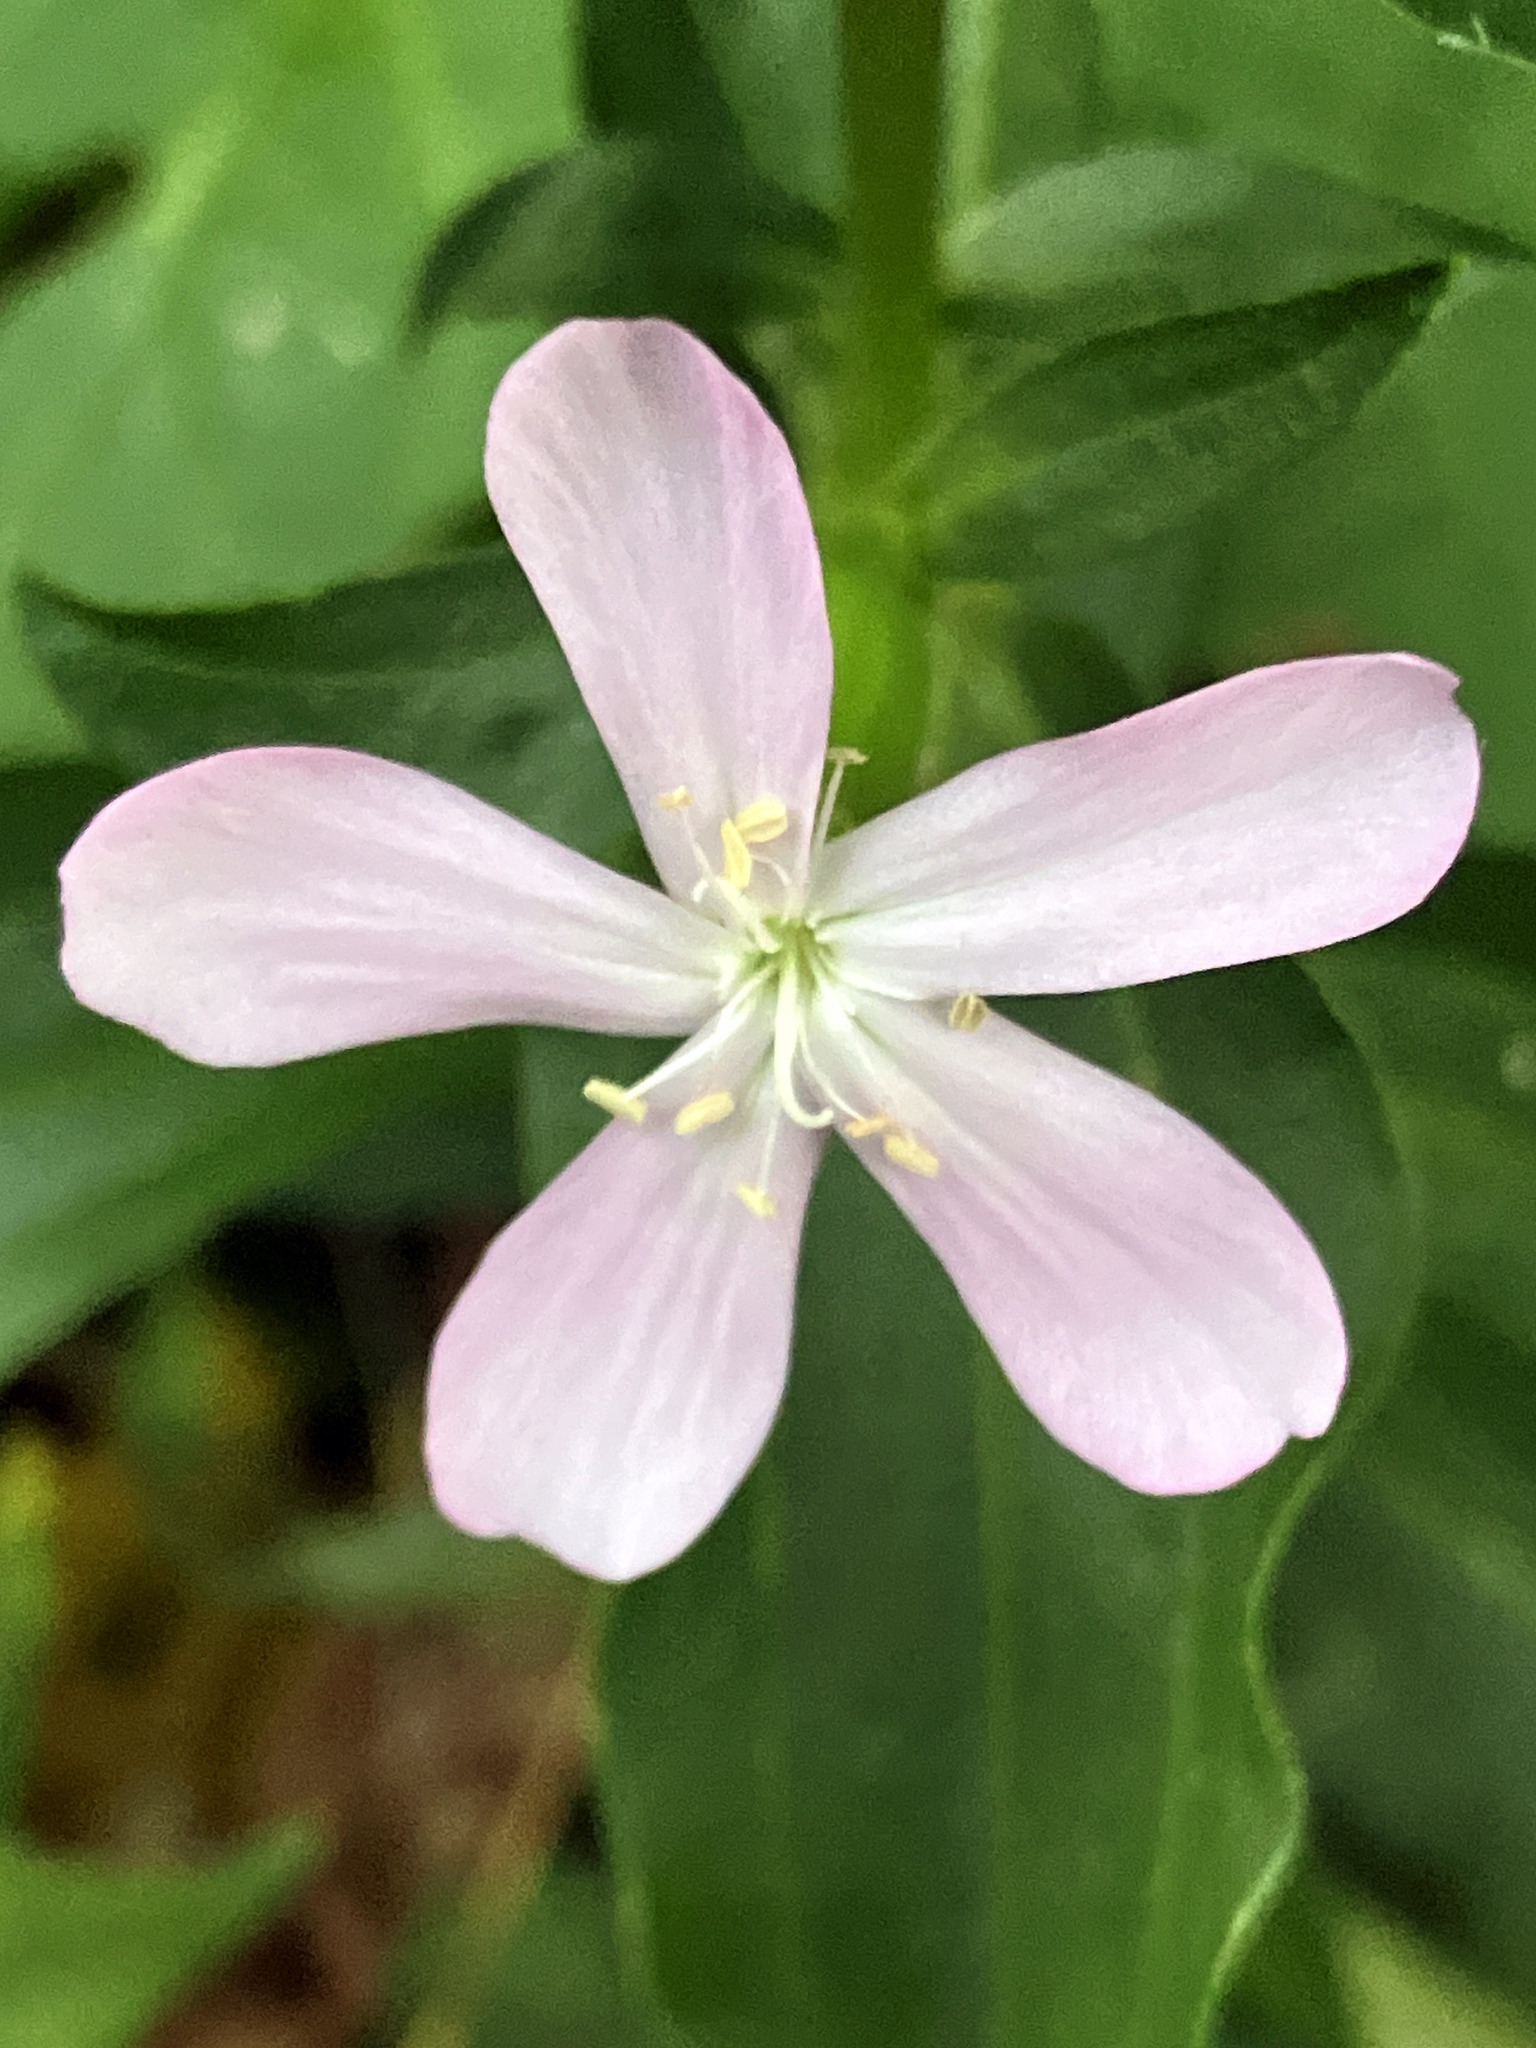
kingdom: Plantae
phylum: Tracheophyta
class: Magnoliopsida
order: Caryophyllales
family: Caryophyllaceae
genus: Saponaria
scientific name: Saponaria officinalis
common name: Soapwort
